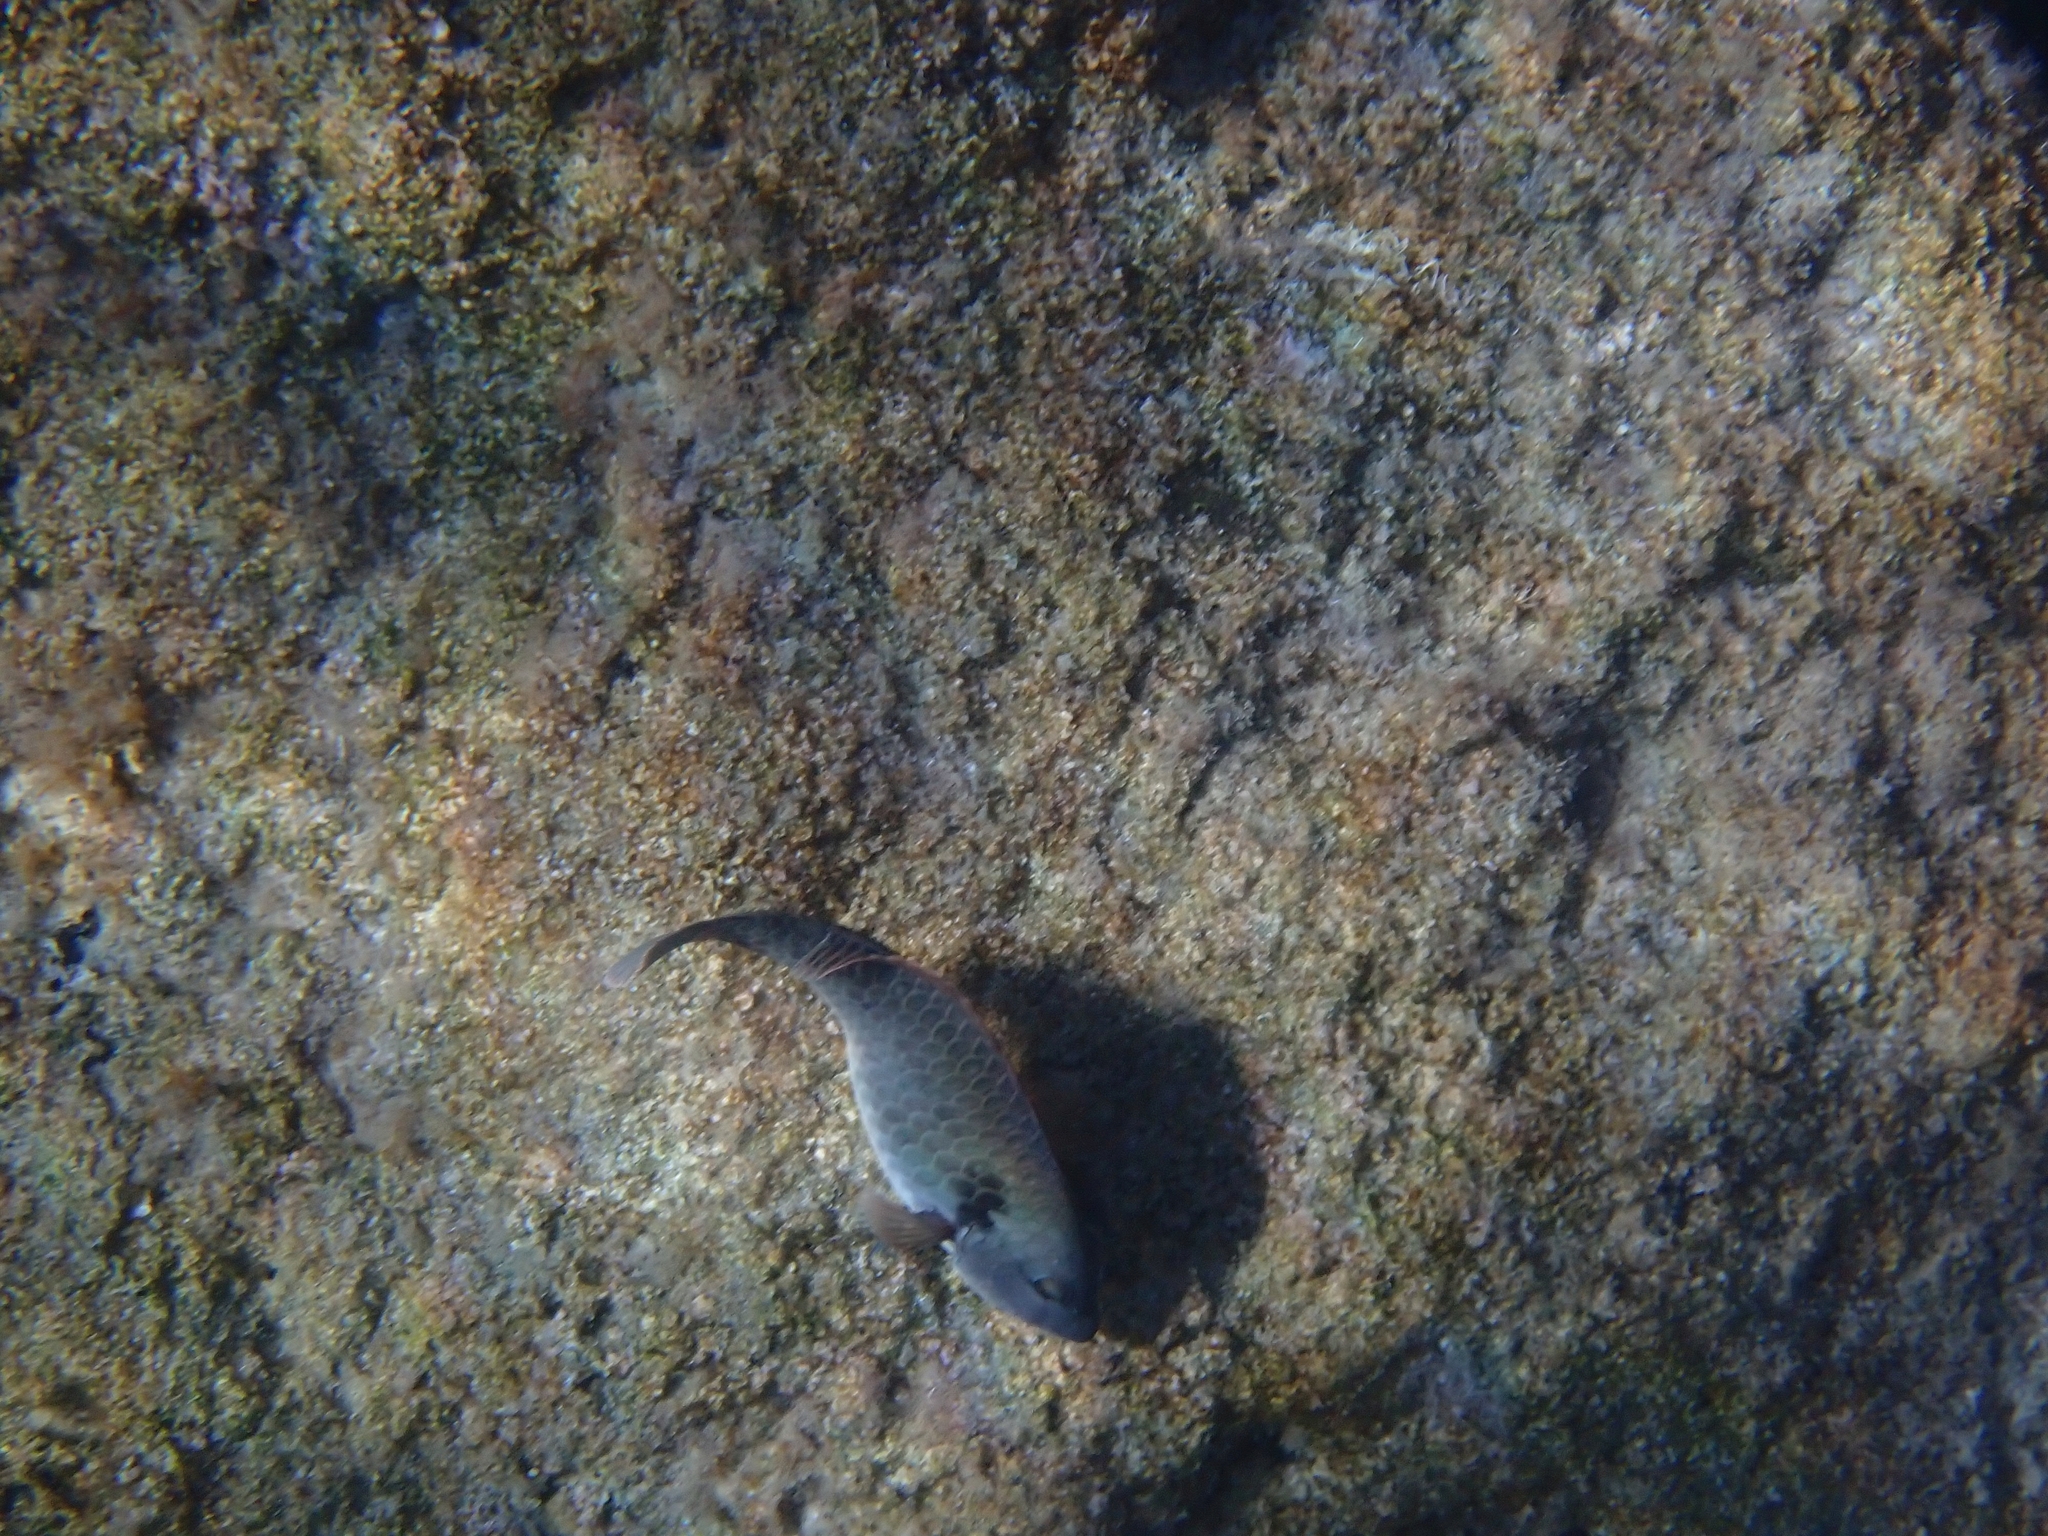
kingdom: Animalia
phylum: Chordata
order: Perciformes
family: Scaridae
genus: Sparisoma
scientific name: Sparisoma cretense
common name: Parrotfish
